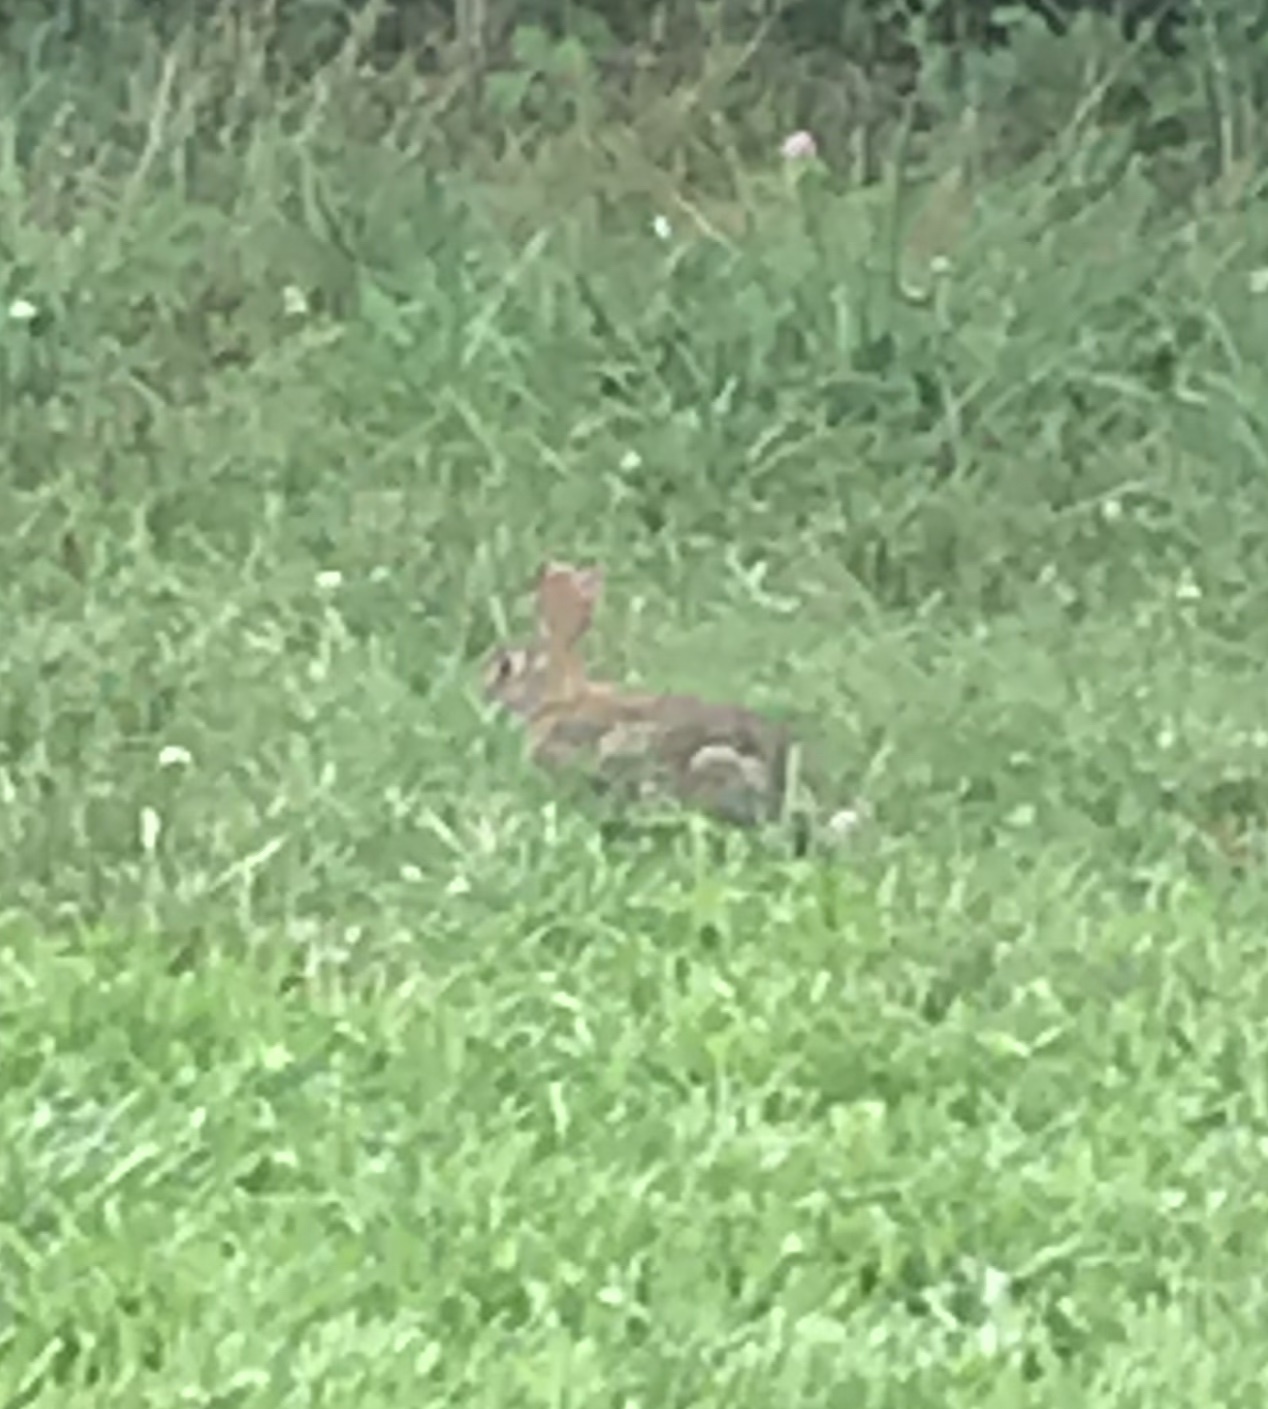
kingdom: Animalia
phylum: Chordata
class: Mammalia
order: Lagomorpha
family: Leporidae
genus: Sylvilagus
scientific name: Sylvilagus floridanus
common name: Eastern cottontail
